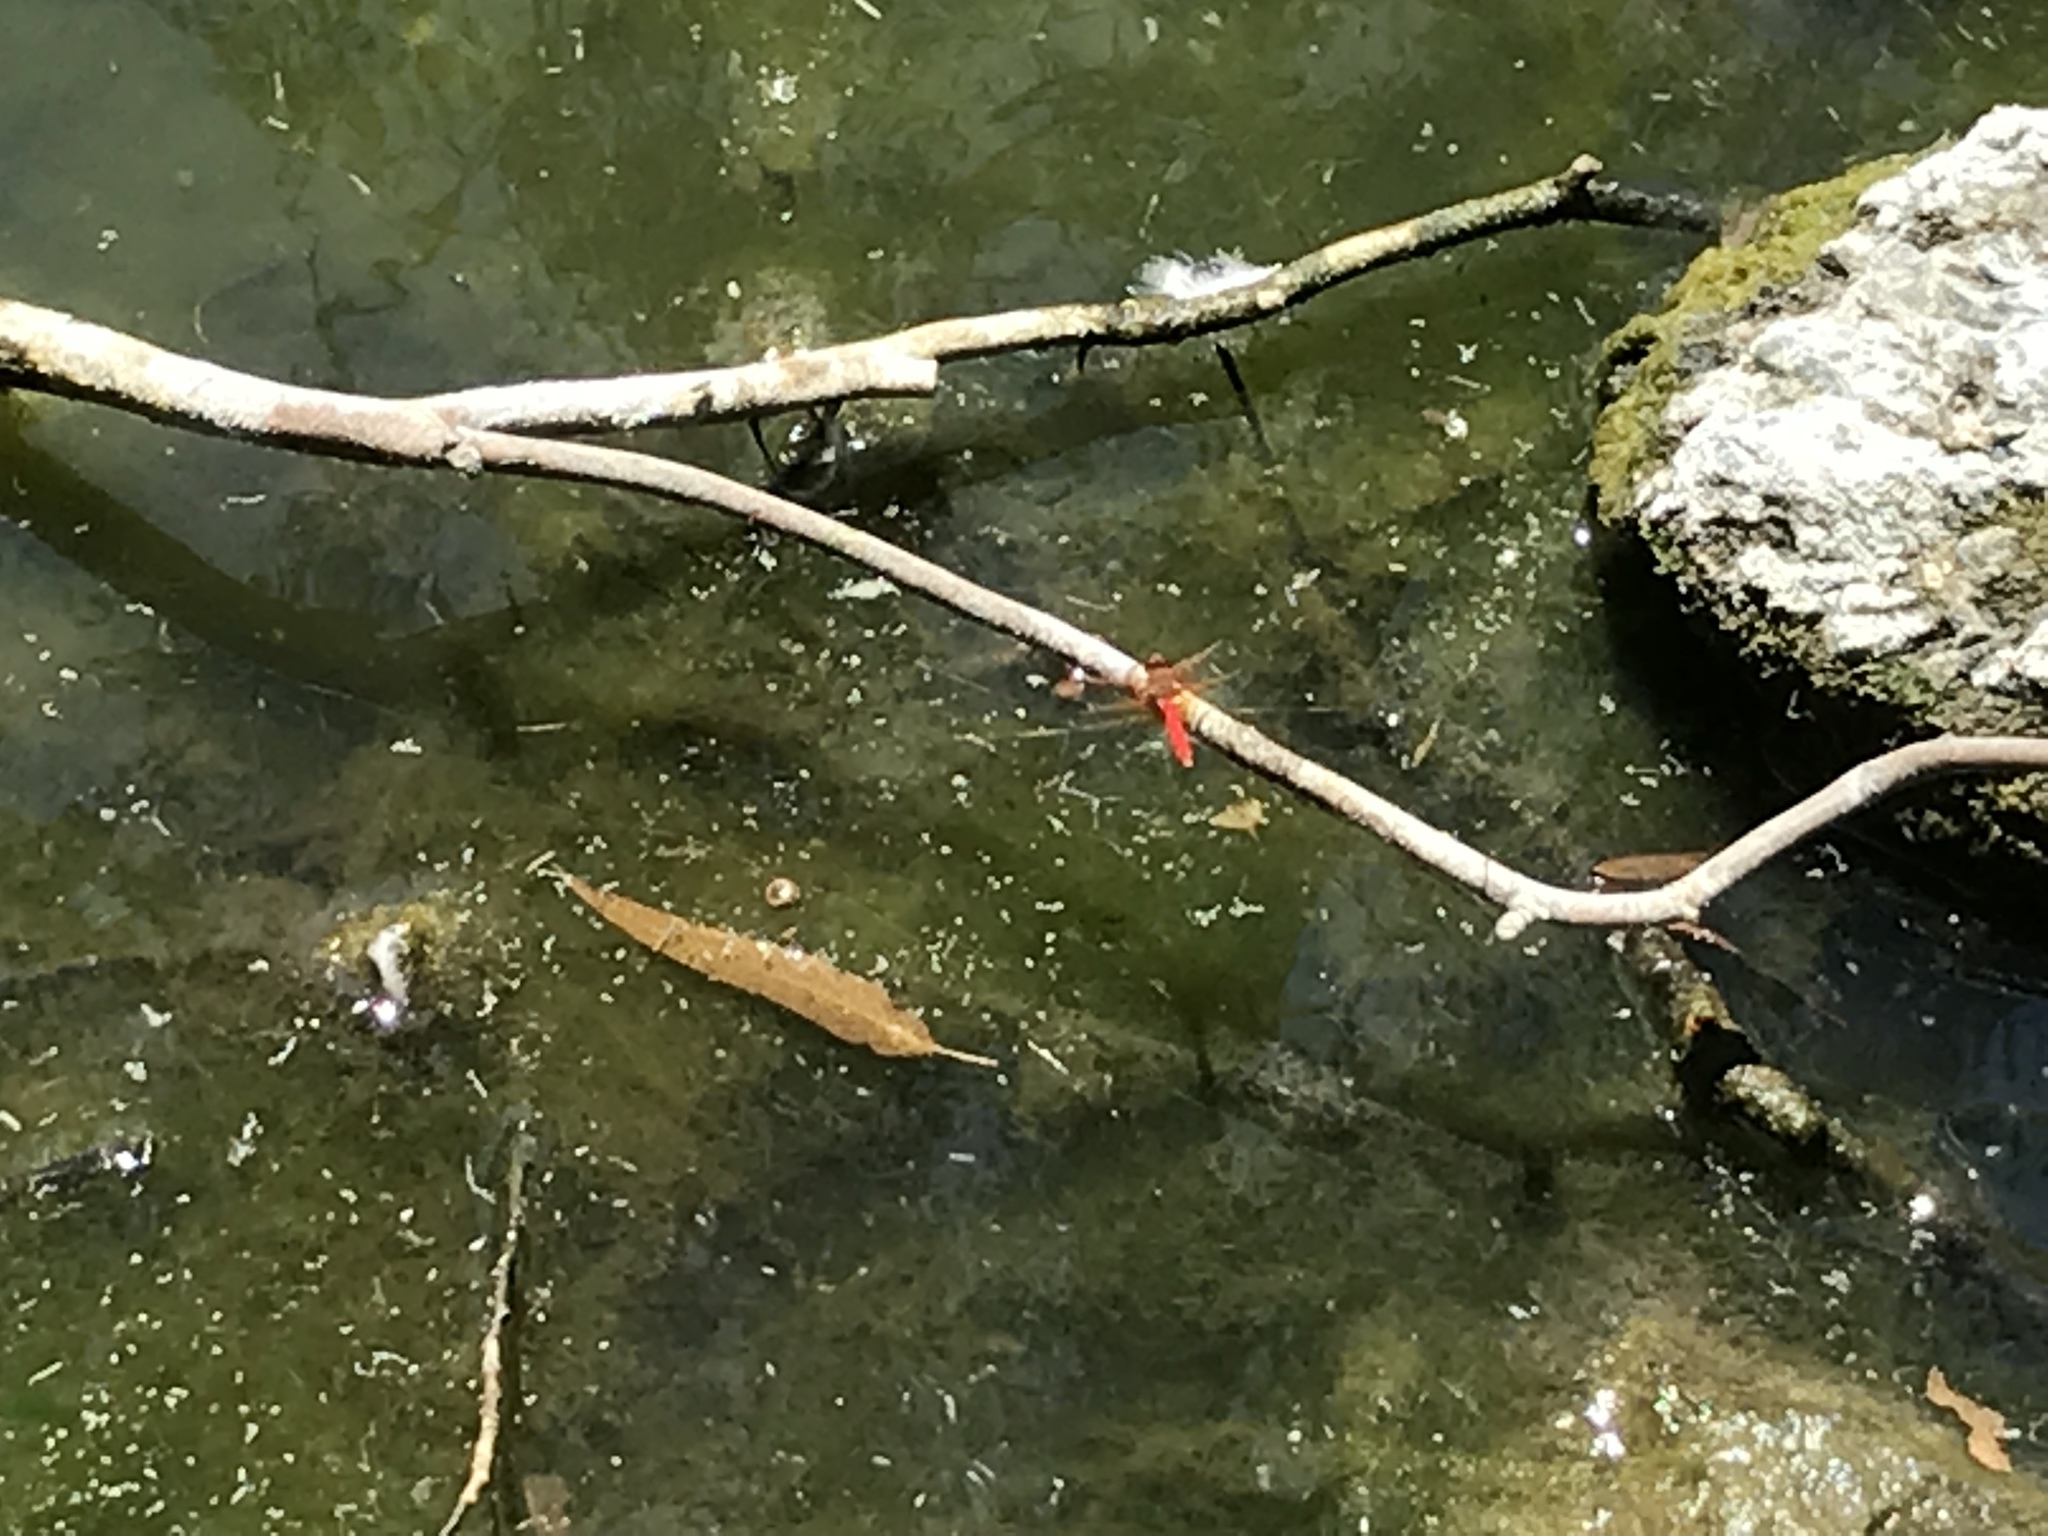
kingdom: Animalia
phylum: Arthropoda
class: Insecta
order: Odonata
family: Libellulidae
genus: Sympetrum
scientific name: Sympetrum illotum
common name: Cardinal meadowhawk
